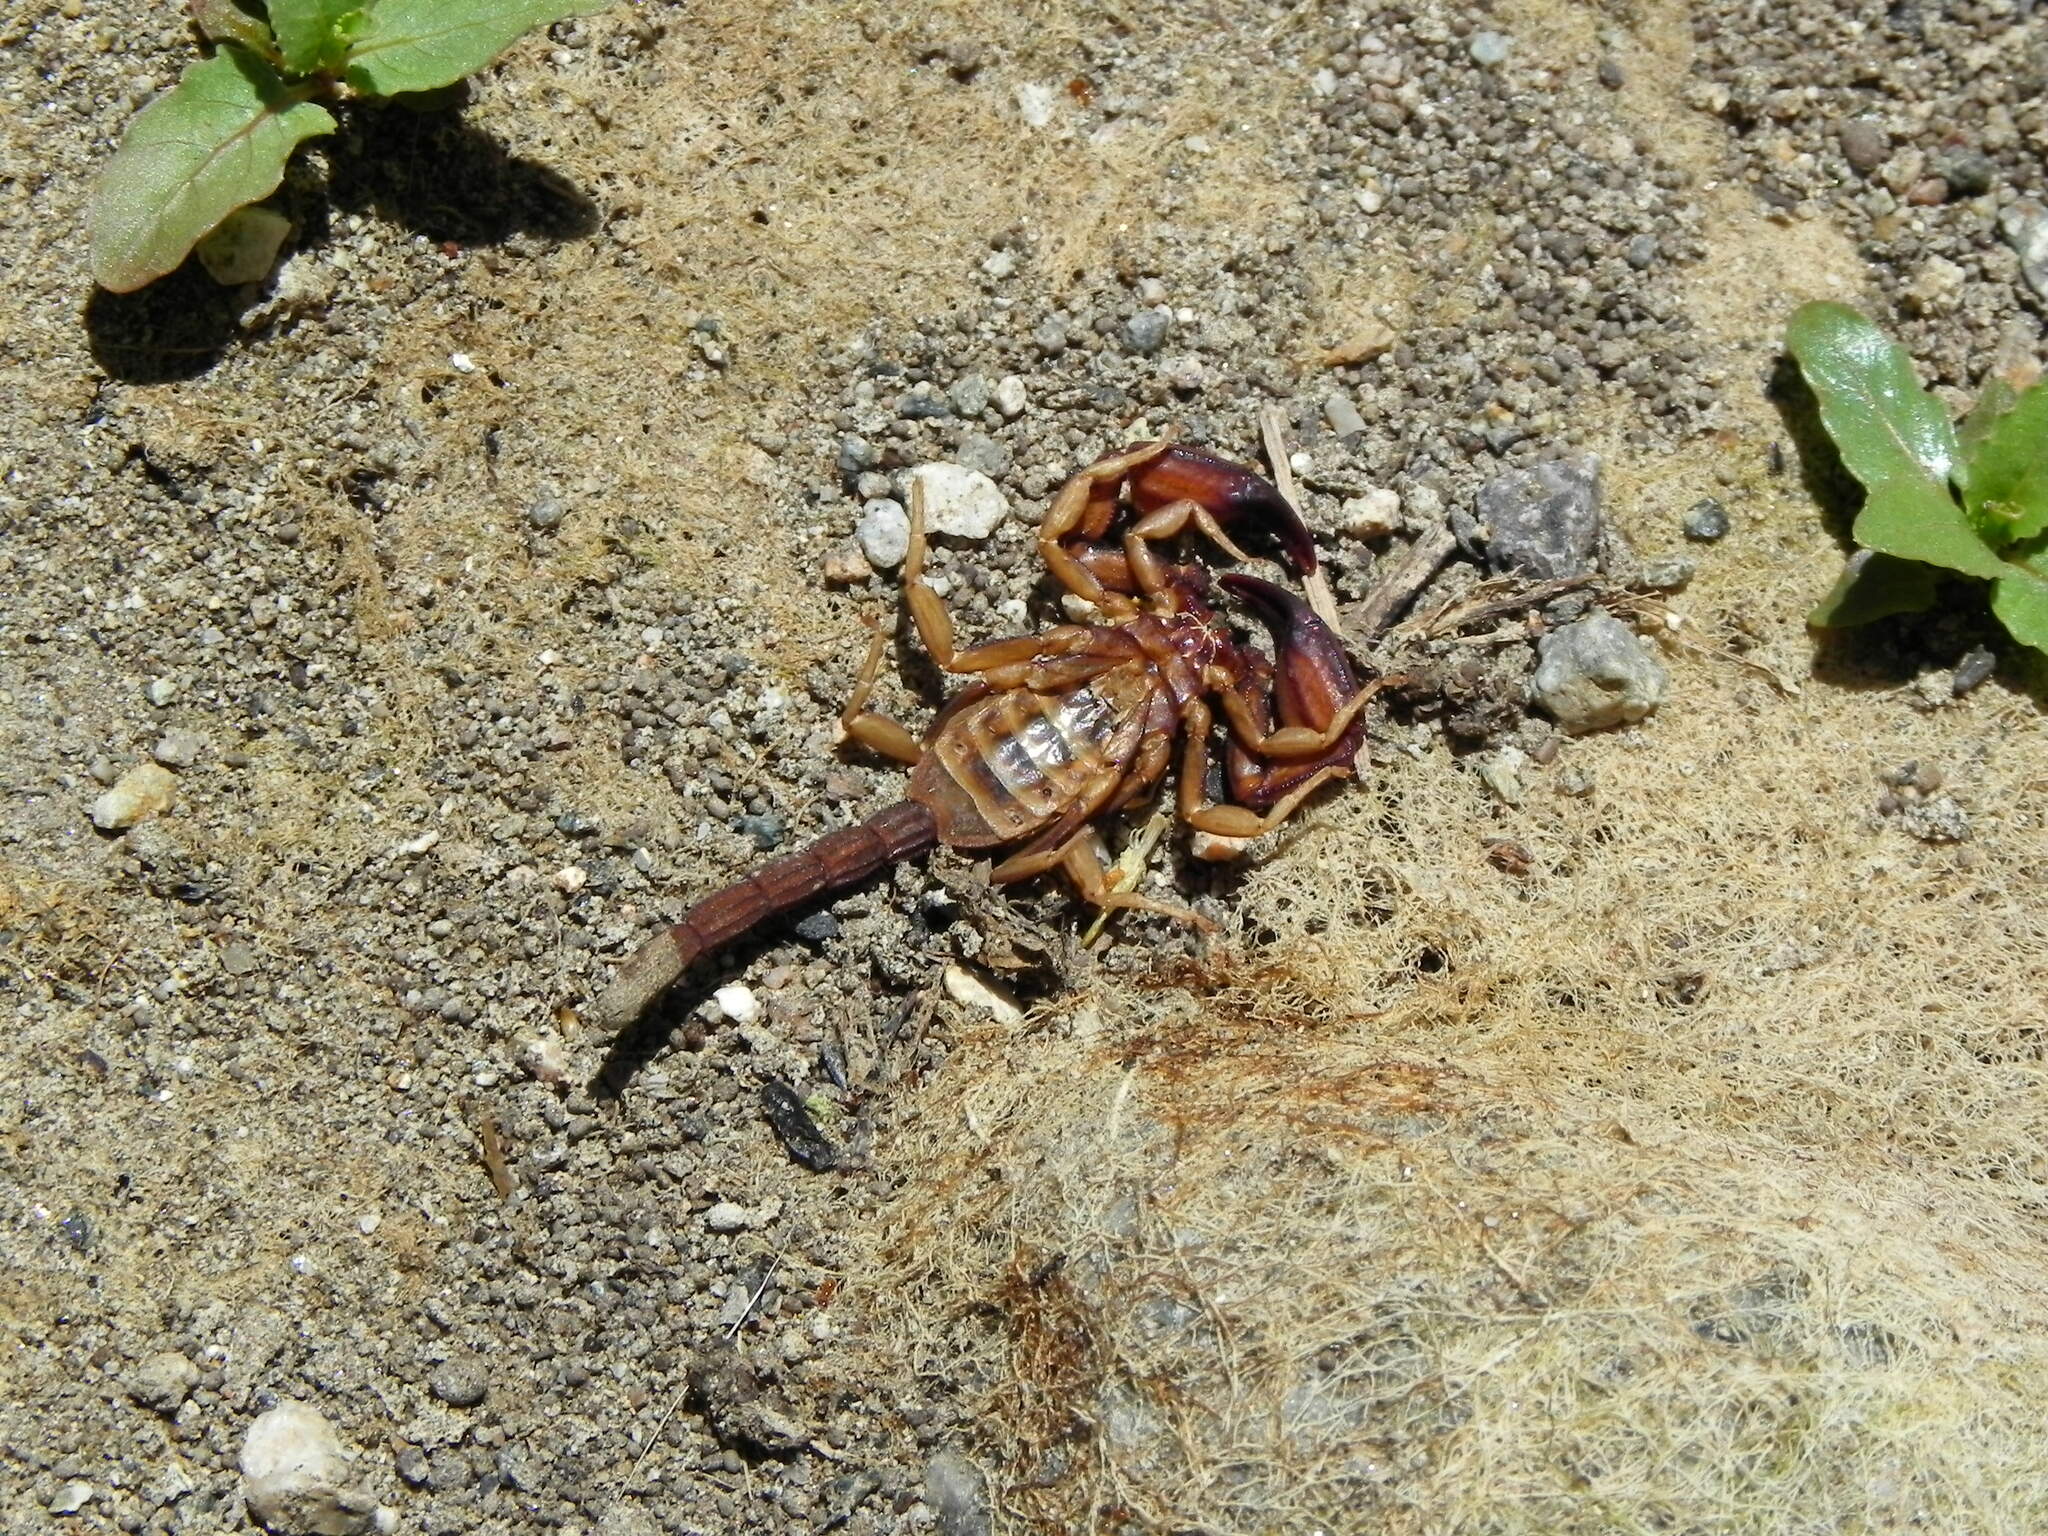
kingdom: Animalia
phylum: Arthropoda
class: Arachnida
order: Scorpiones
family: Vaejovidae
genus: Kovarikia
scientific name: Kovarikia oxy
